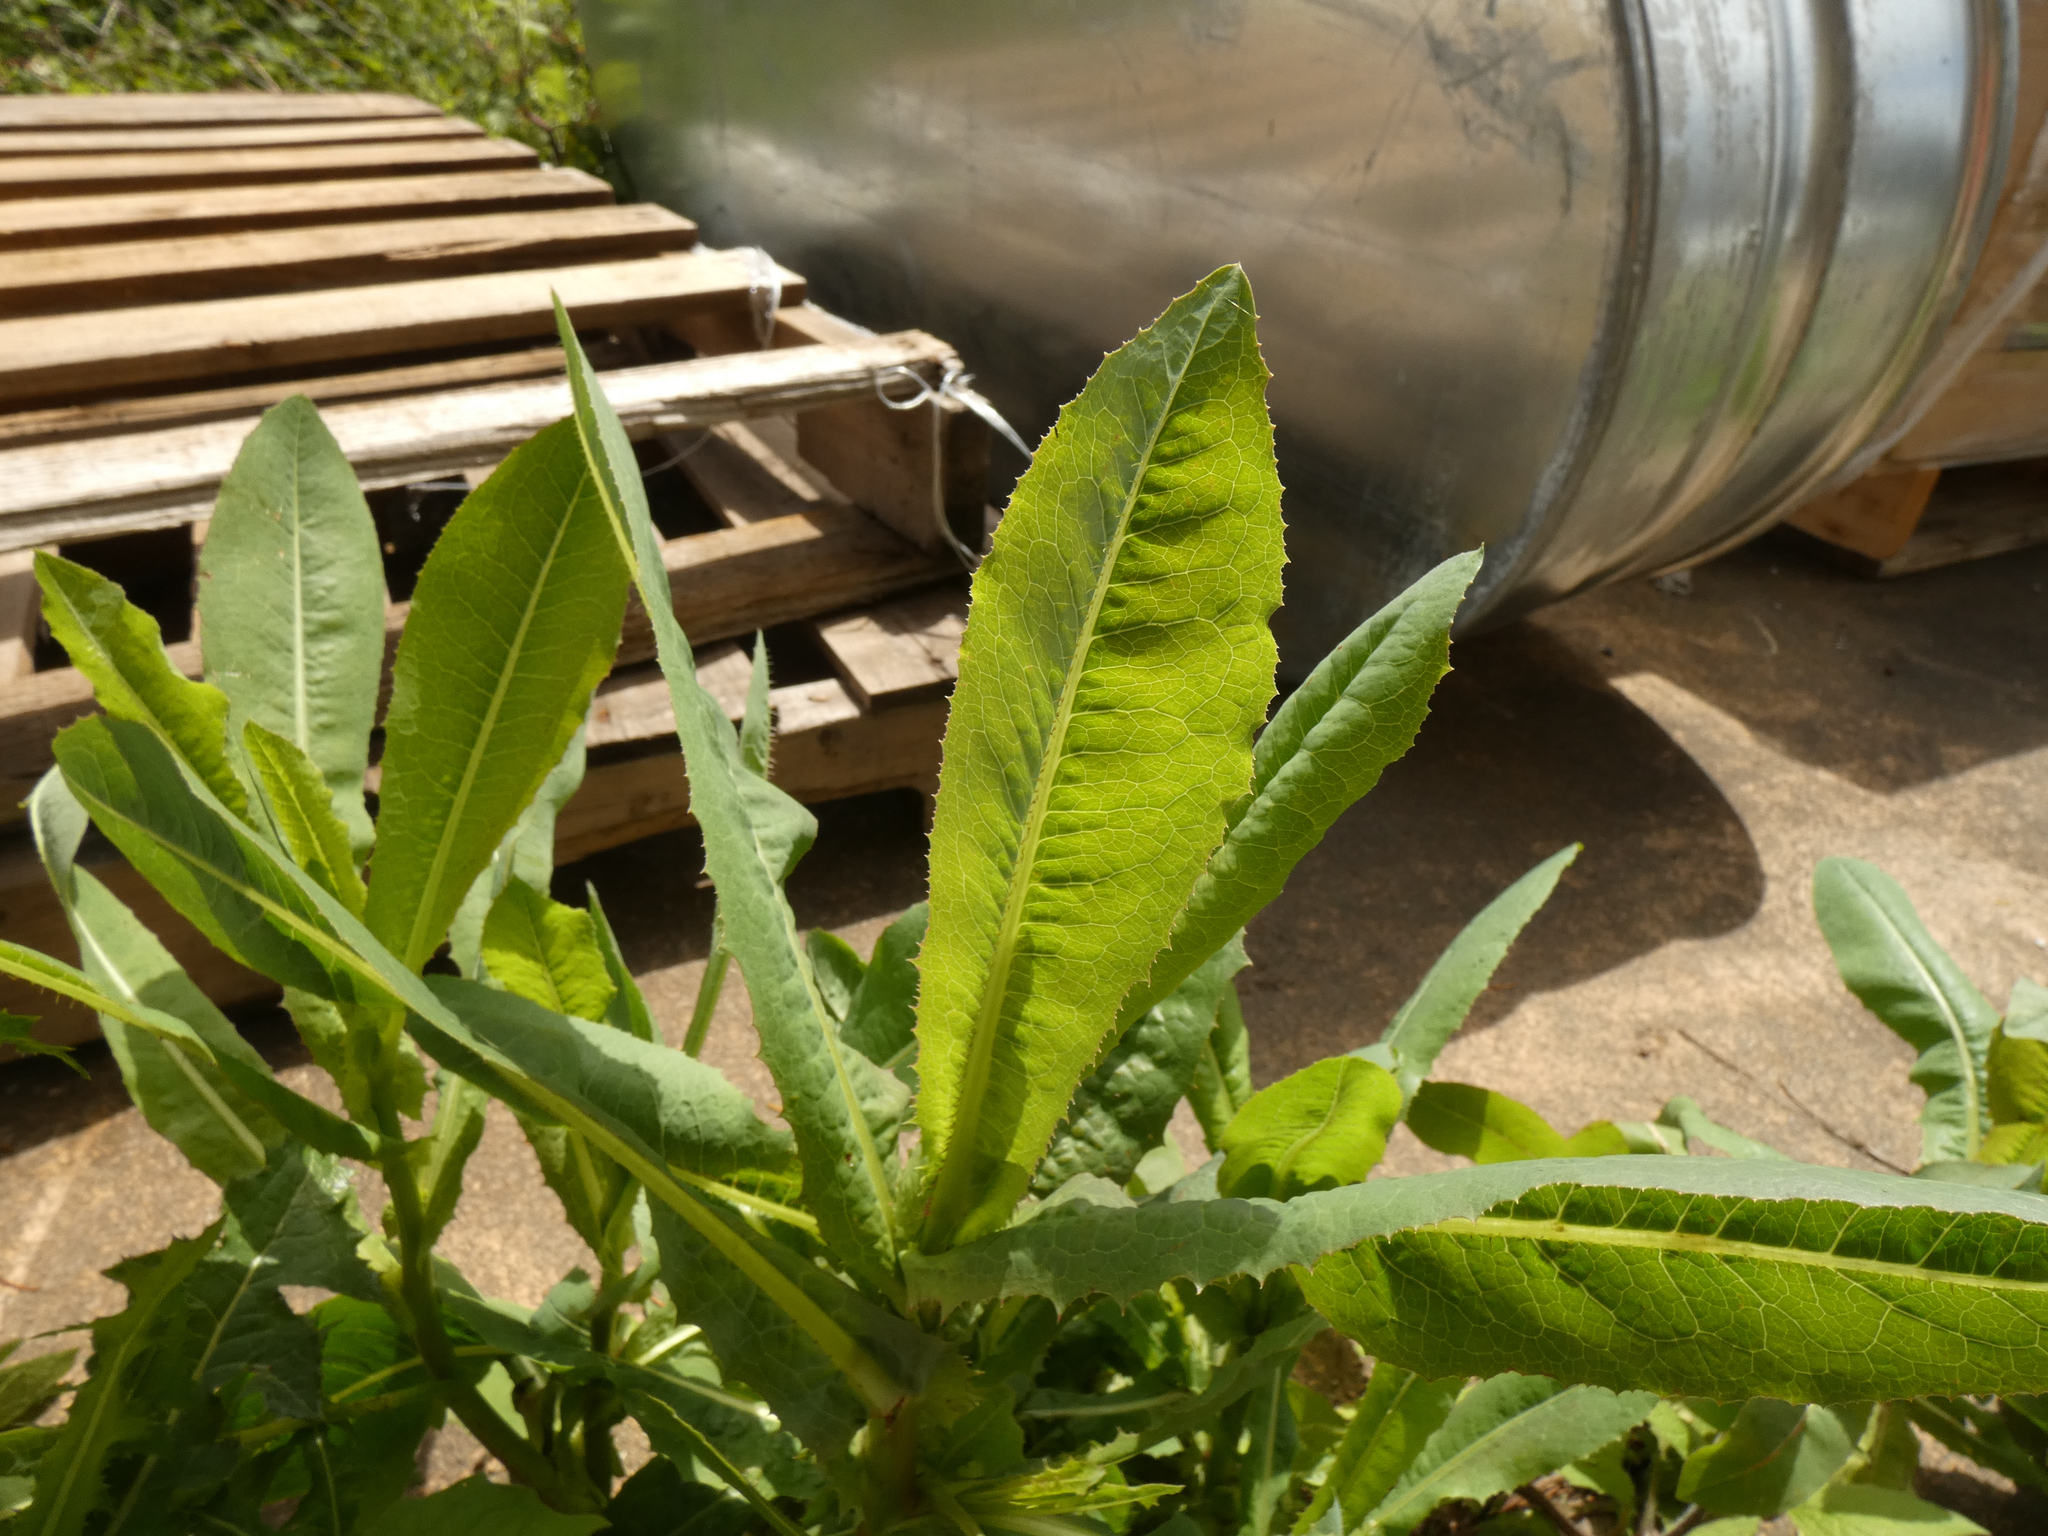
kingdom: Plantae
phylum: Tracheophyta
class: Magnoliopsida
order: Asterales
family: Asteraceae
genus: Lactuca
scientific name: Lactuca serriola
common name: Prickly lettuce
